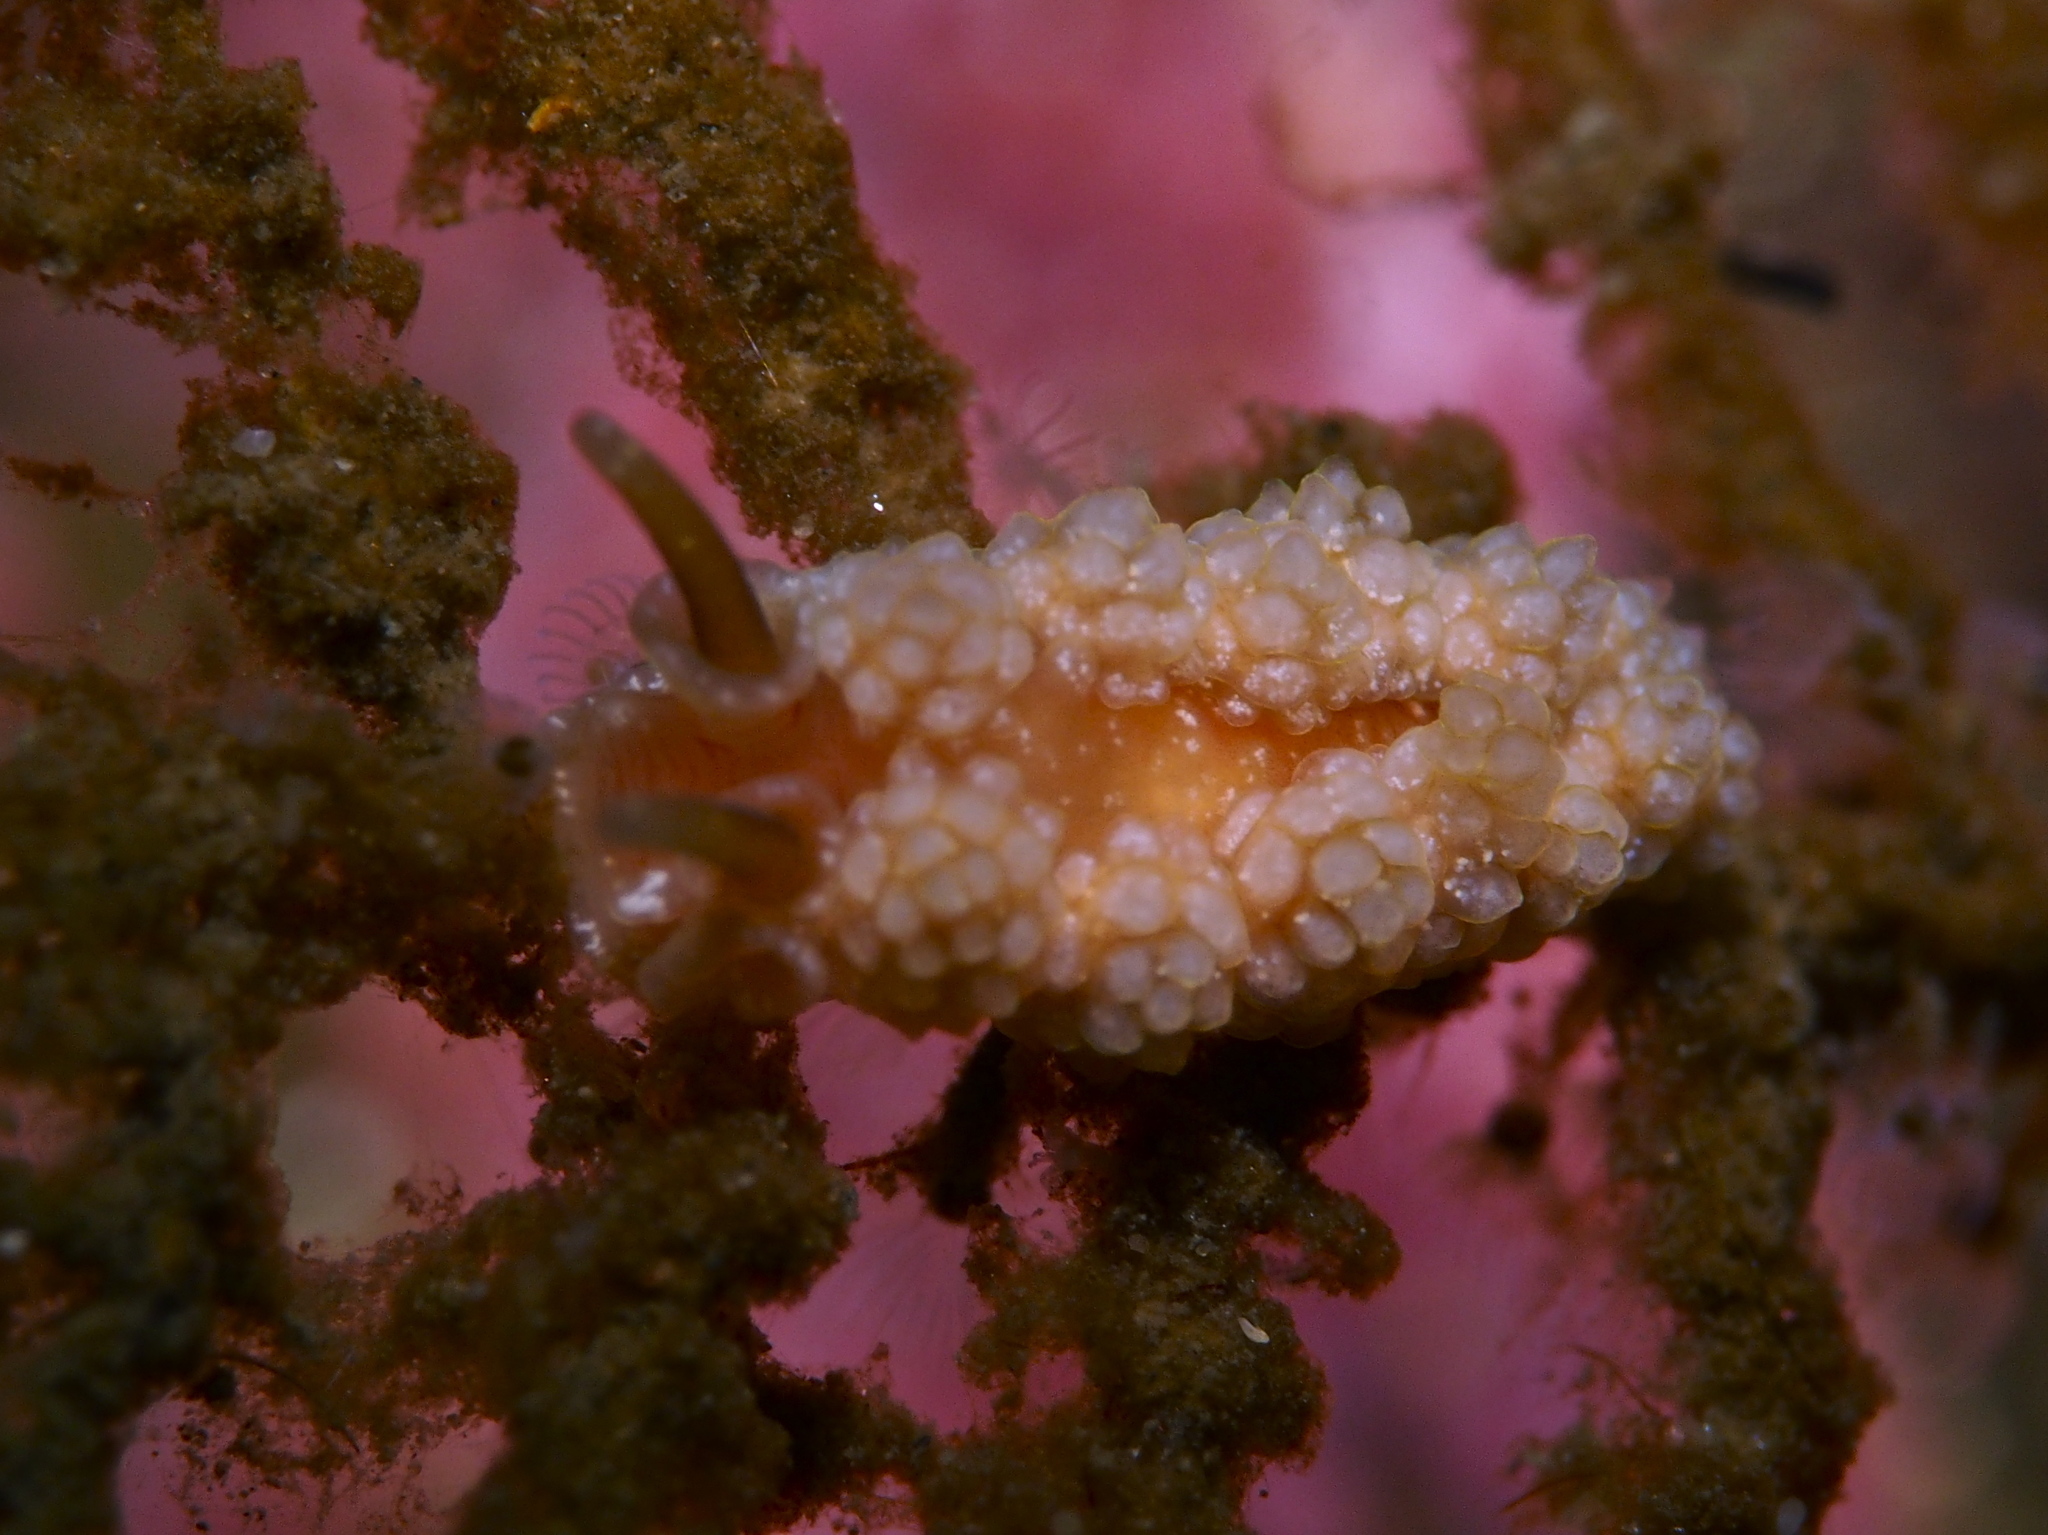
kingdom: Animalia
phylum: Mollusca
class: Gastropoda
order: Nudibranchia
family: Dotidae
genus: Doto
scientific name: Doto fragilis
